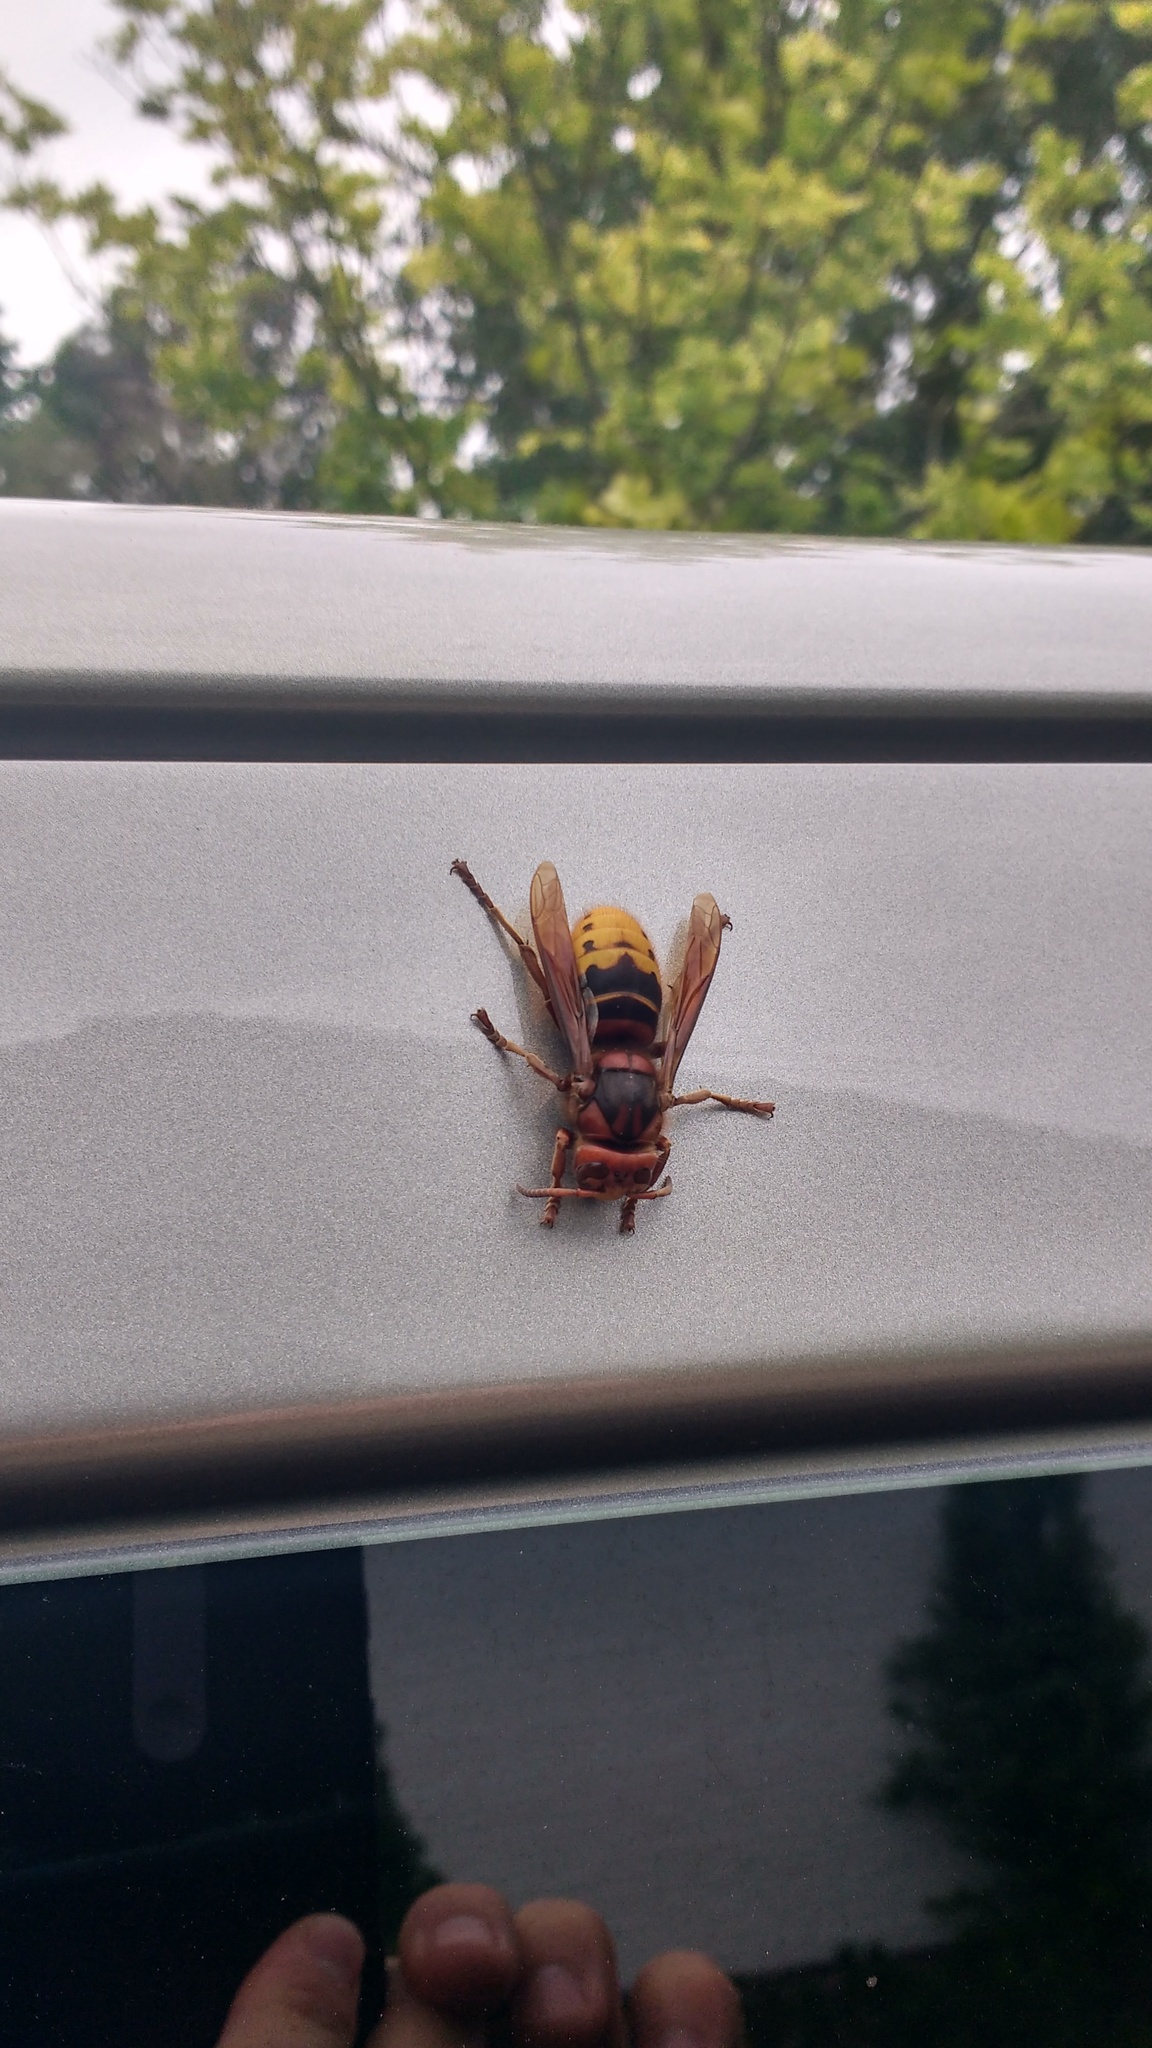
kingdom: Animalia
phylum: Arthropoda
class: Insecta
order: Hymenoptera
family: Vespidae
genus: Vespa
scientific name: Vespa crabro
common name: Hornet
